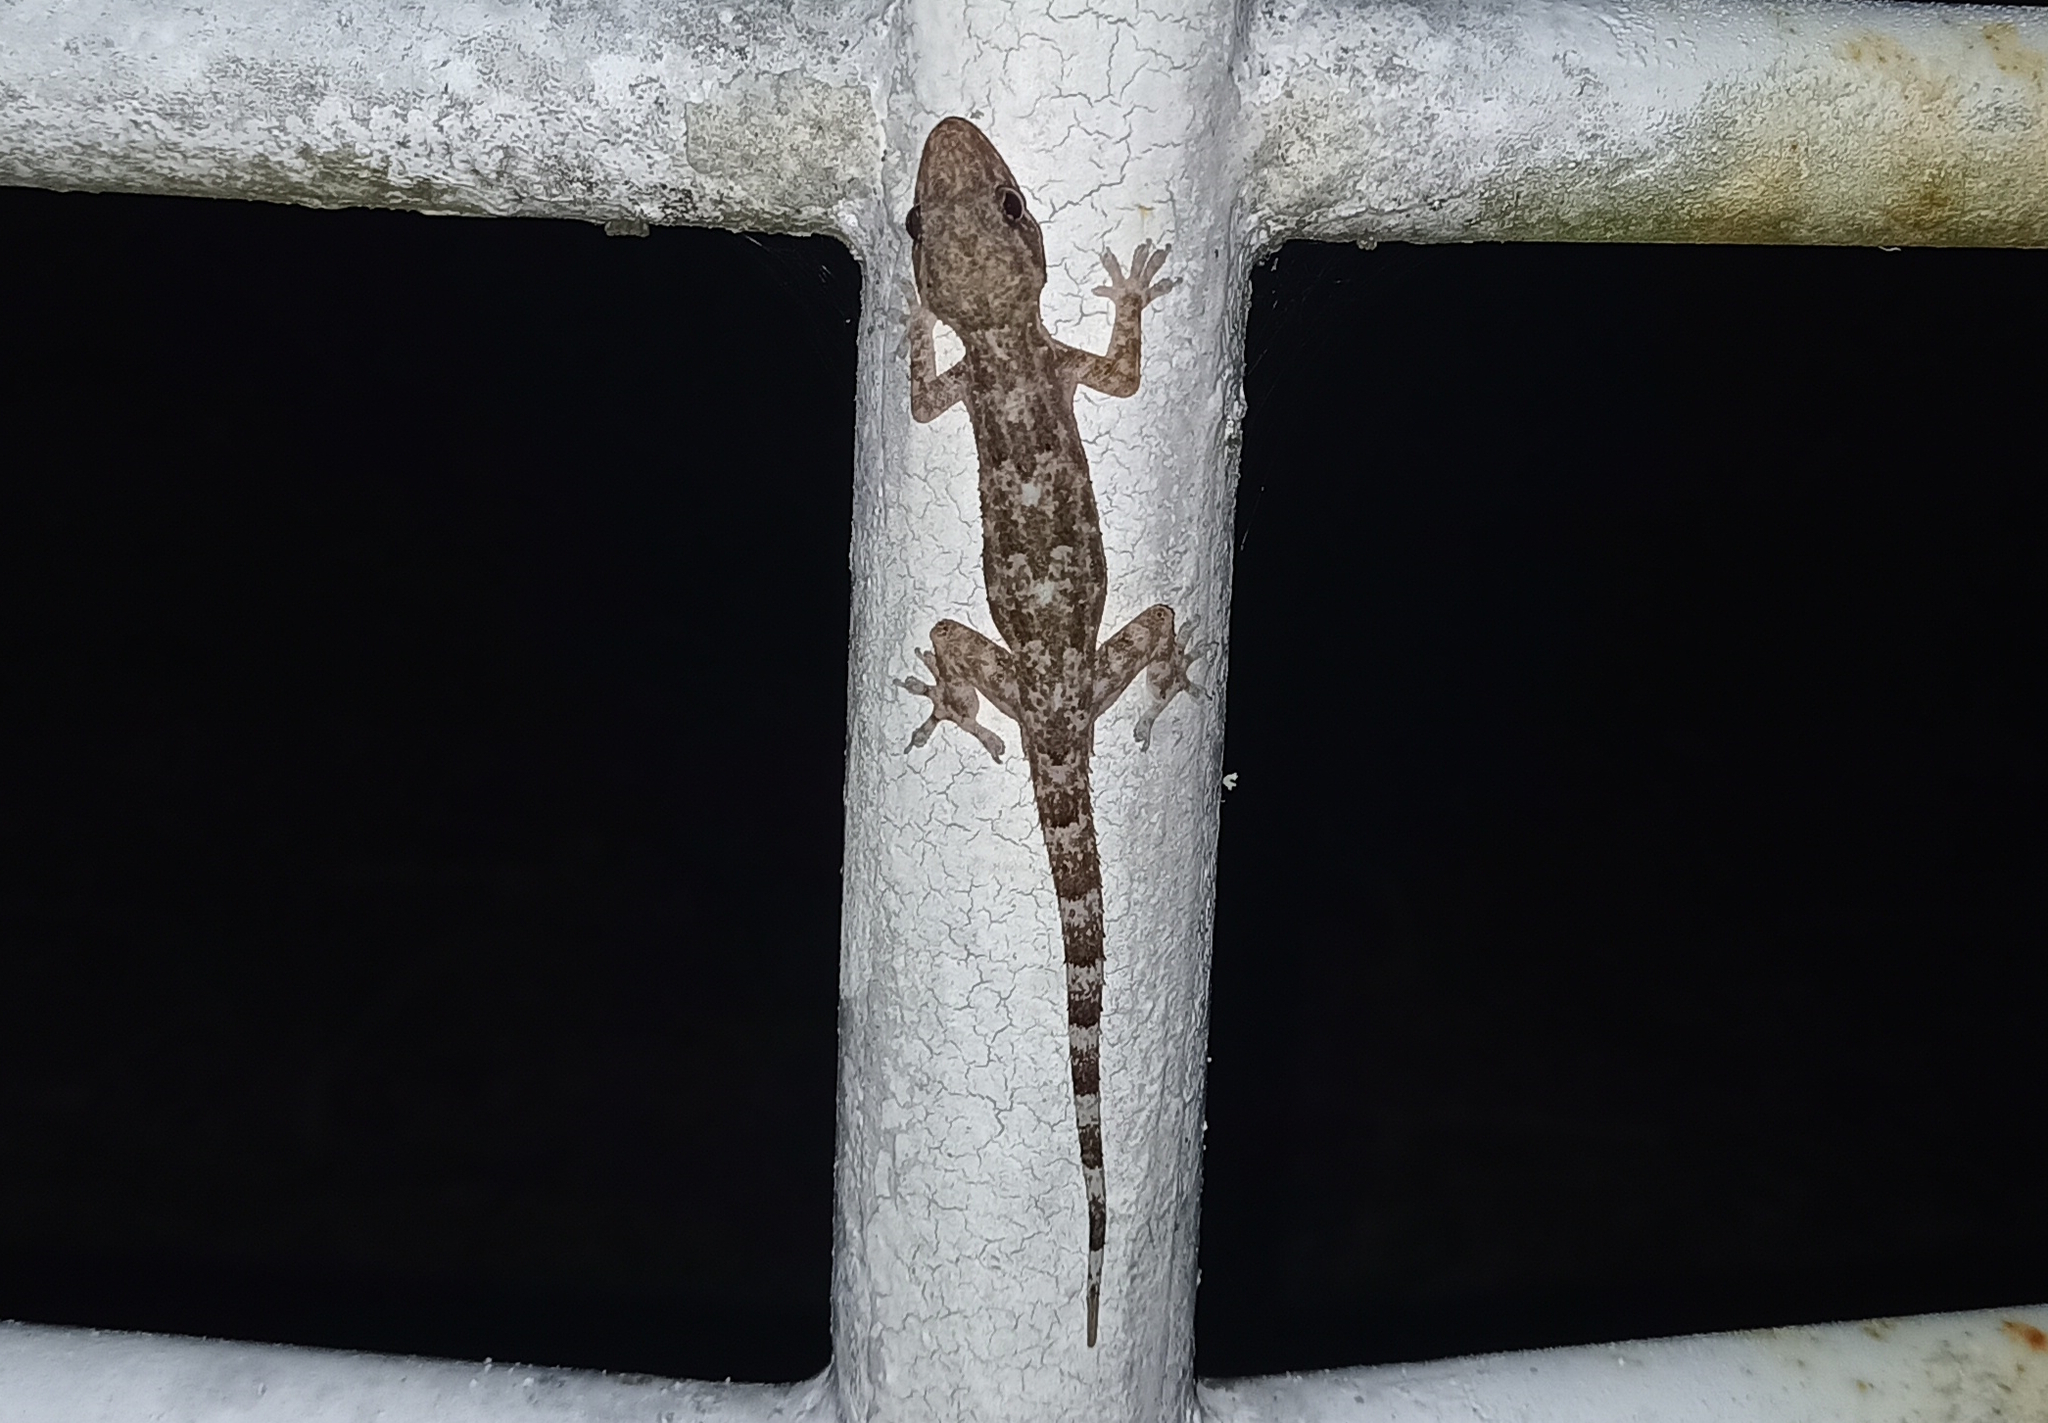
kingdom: Animalia
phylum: Chordata
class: Squamata
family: Gekkonidae
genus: Hemidactylus
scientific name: Hemidactylus mabouia
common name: House gecko
